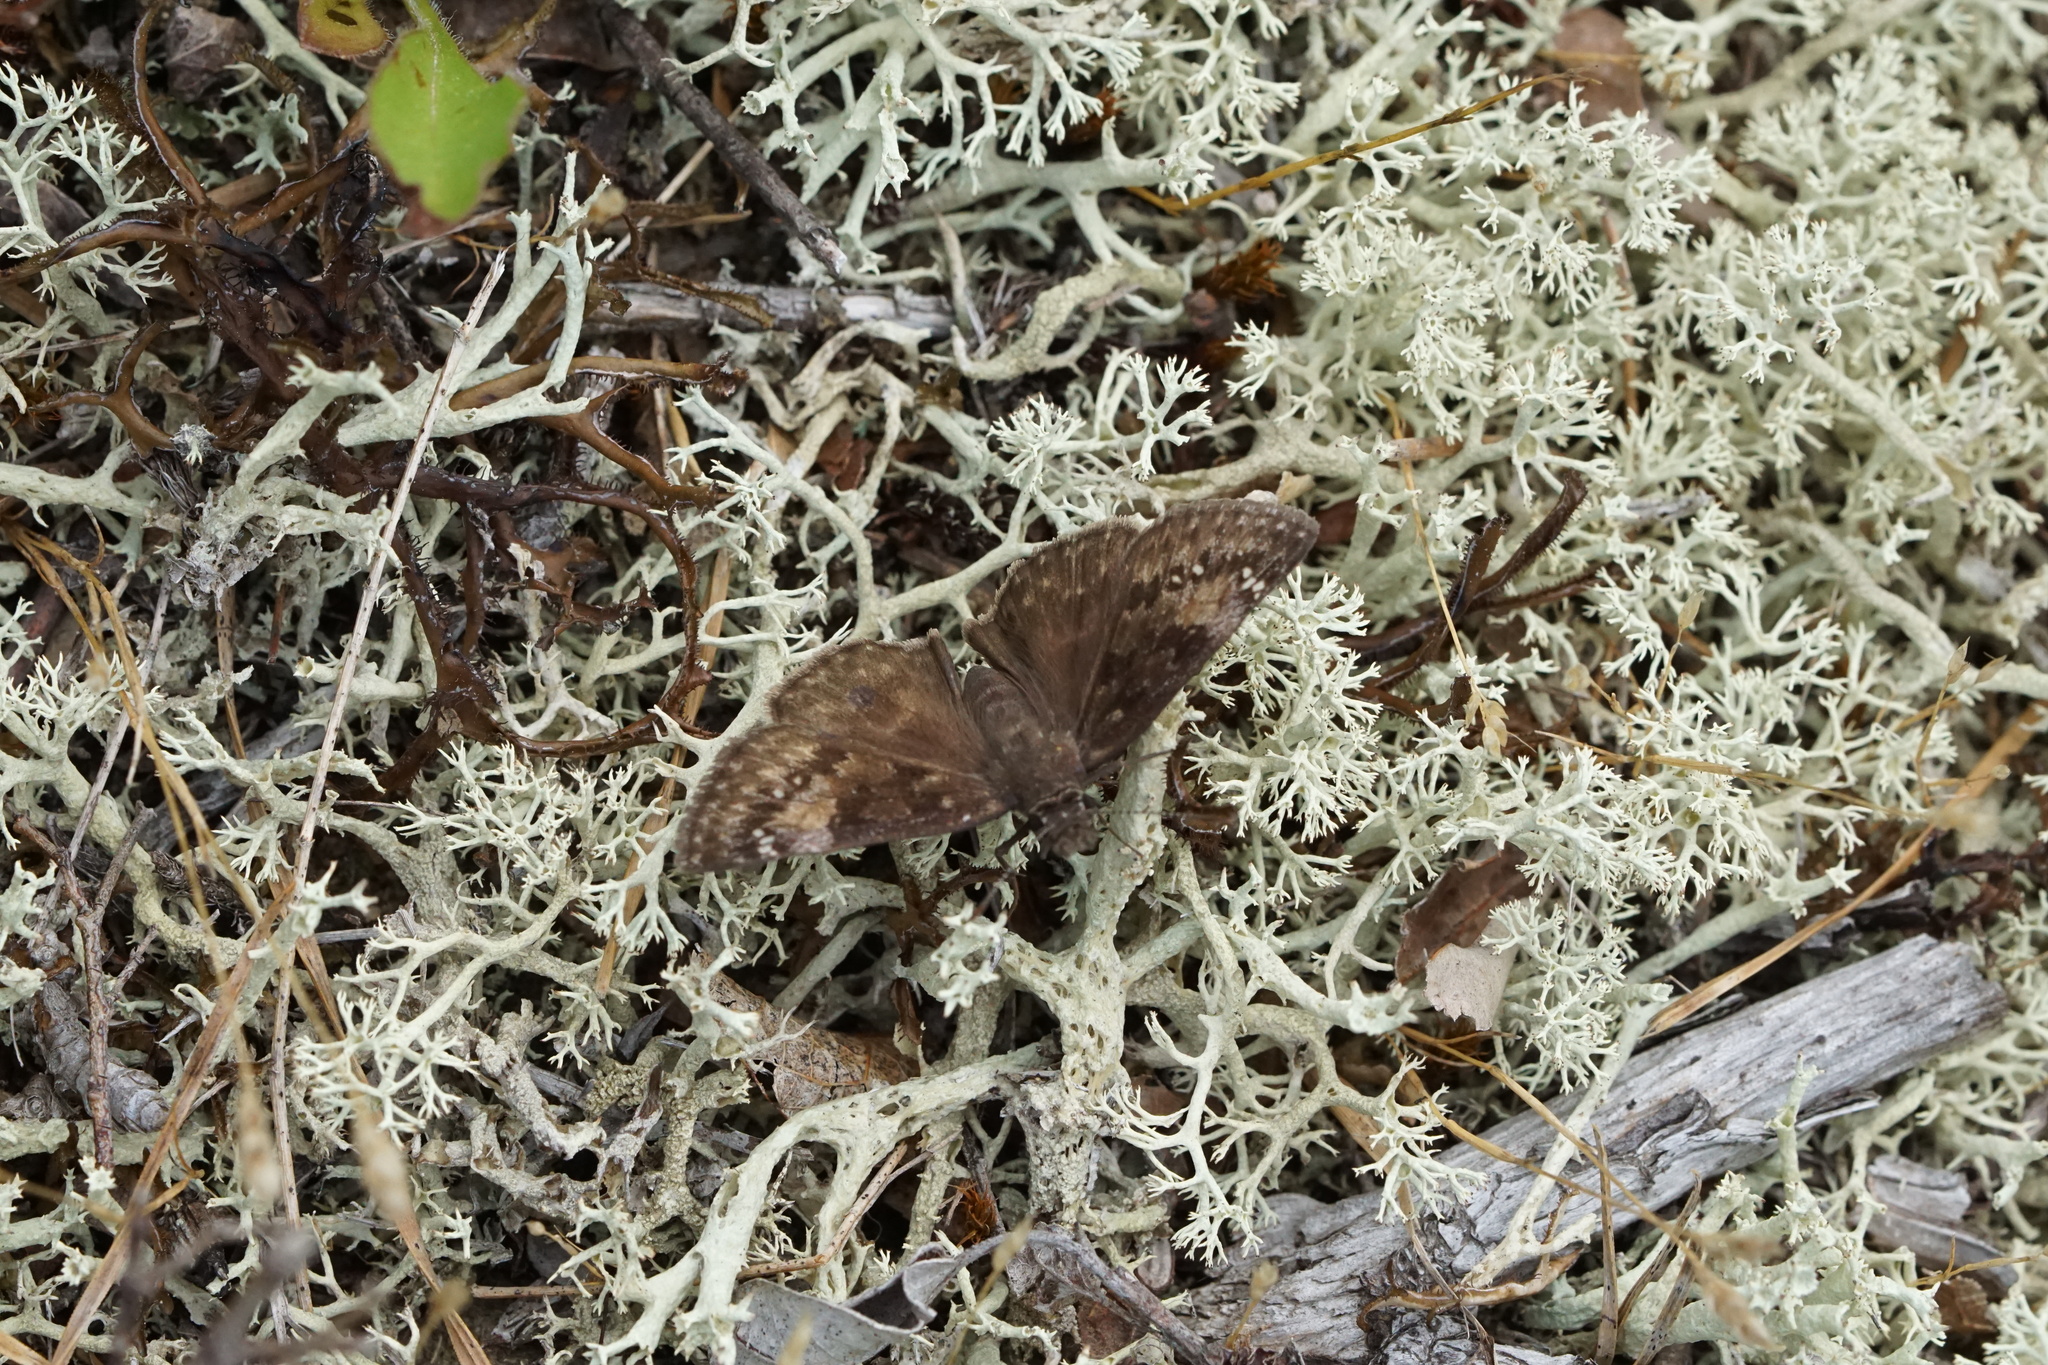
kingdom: Animalia
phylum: Arthropoda
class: Insecta
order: Lepidoptera
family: Hesperiidae
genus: Erynnis
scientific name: Erynnis baptisiae
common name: Wild indigo duskywing
